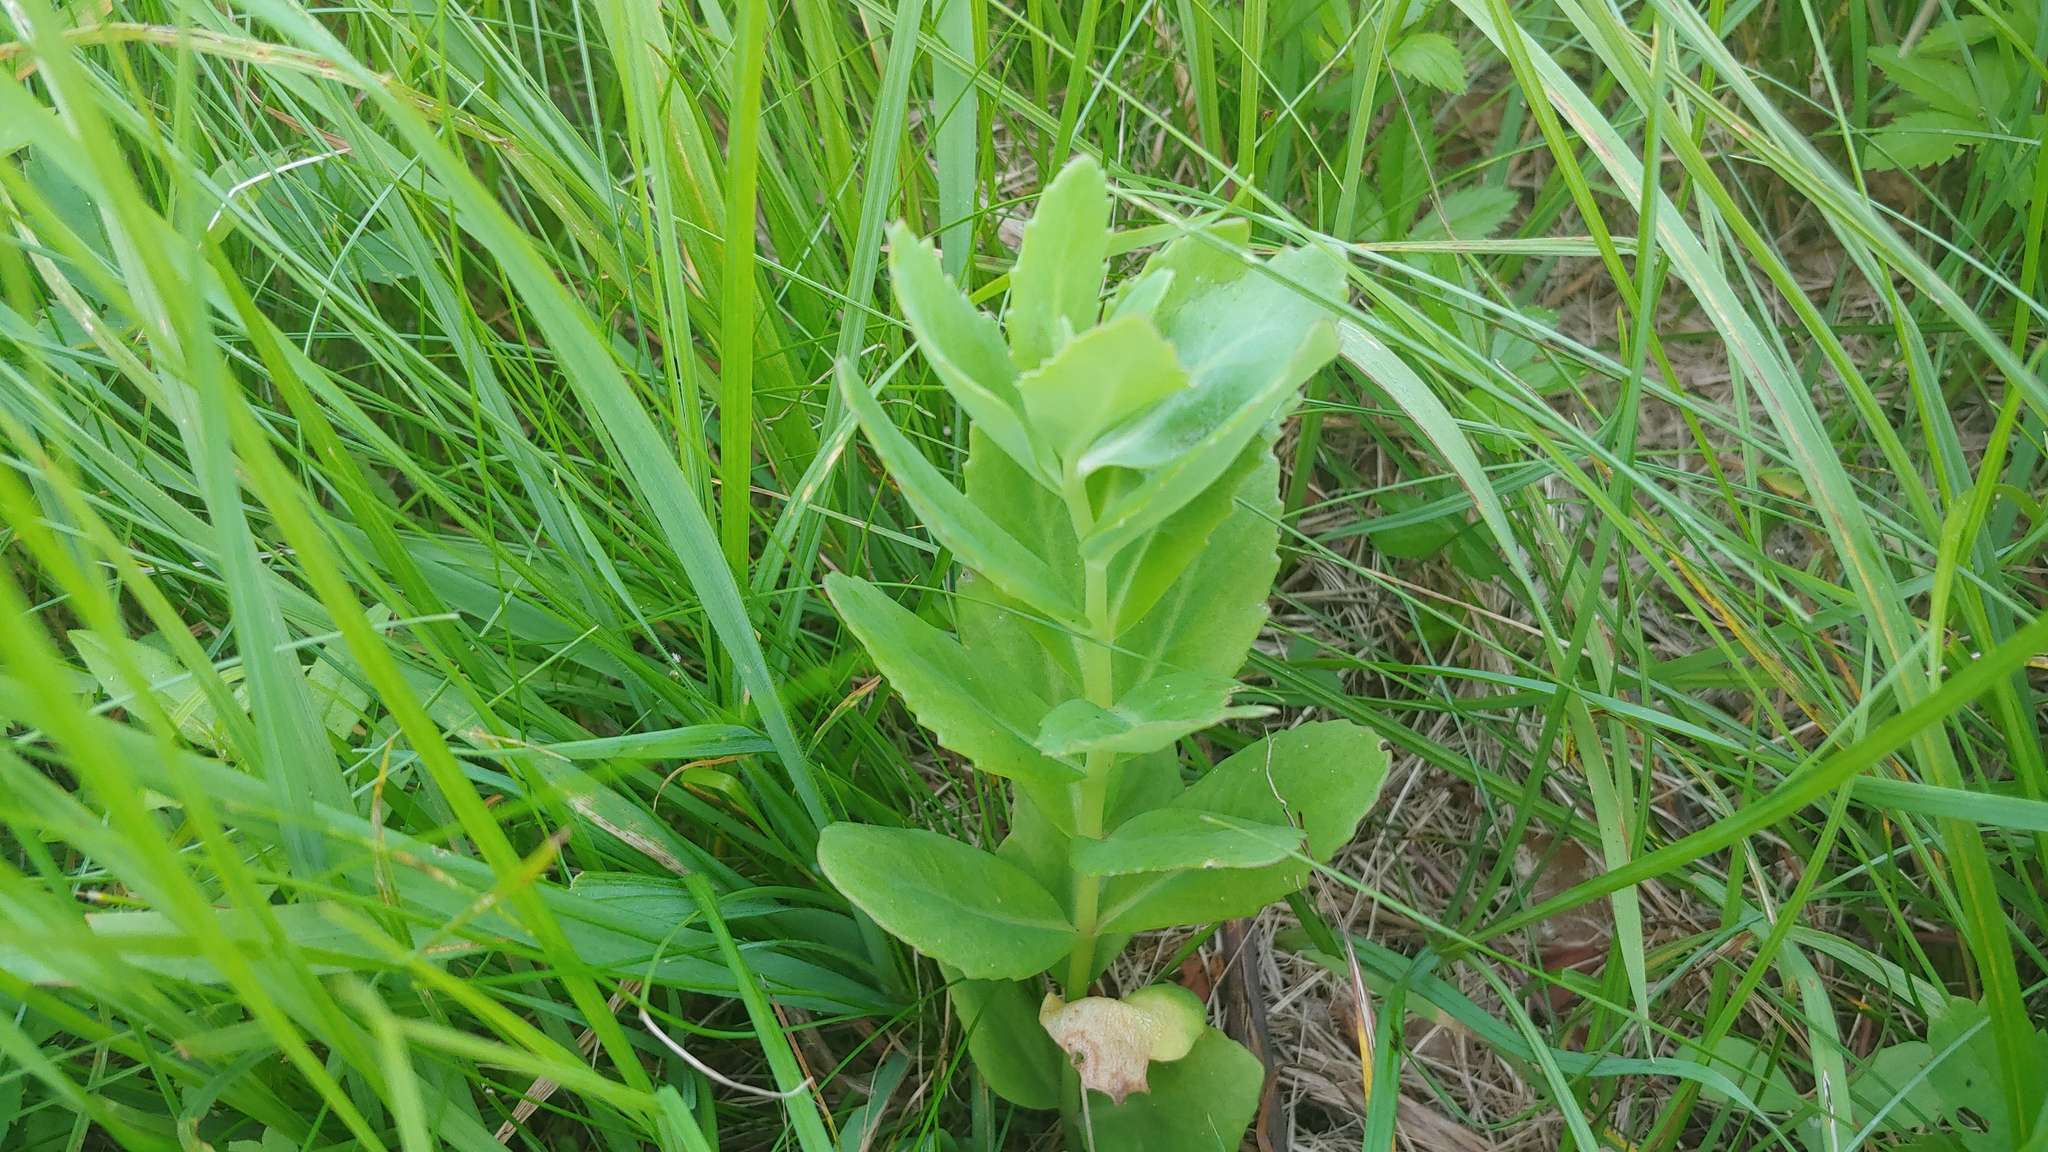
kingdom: Plantae
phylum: Tracheophyta
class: Magnoliopsida
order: Saxifragales
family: Crassulaceae
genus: Hylotelephium
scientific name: Hylotelephium telephium
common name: Live-forever
